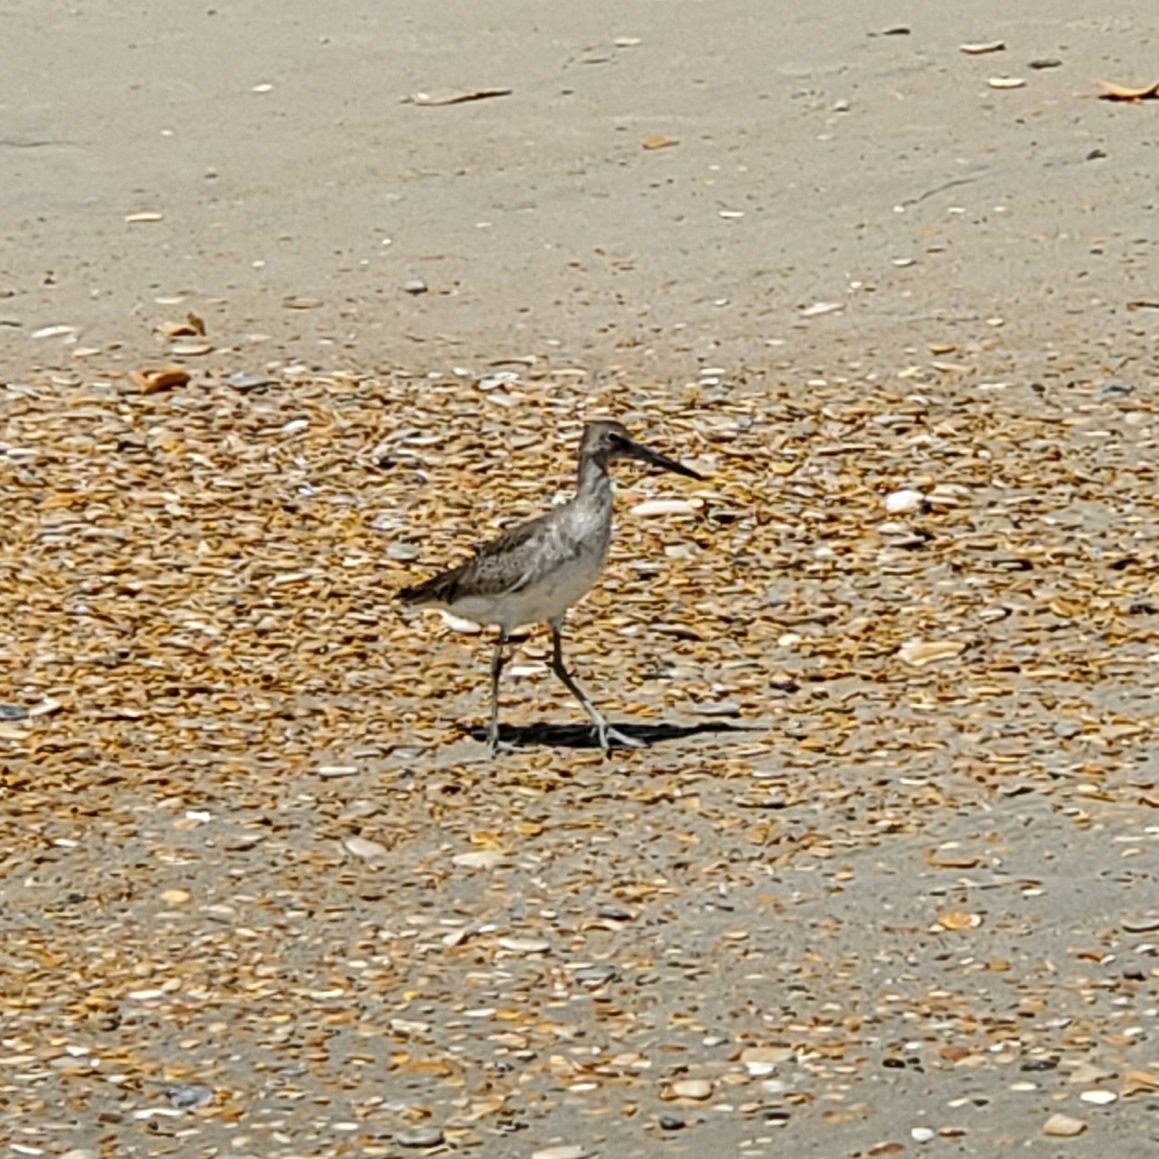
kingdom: Animalia
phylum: Chordata
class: Aves
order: Charadriiformes
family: Scolopacidae
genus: Tringa
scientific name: Tringa semipalmata
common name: Willet
